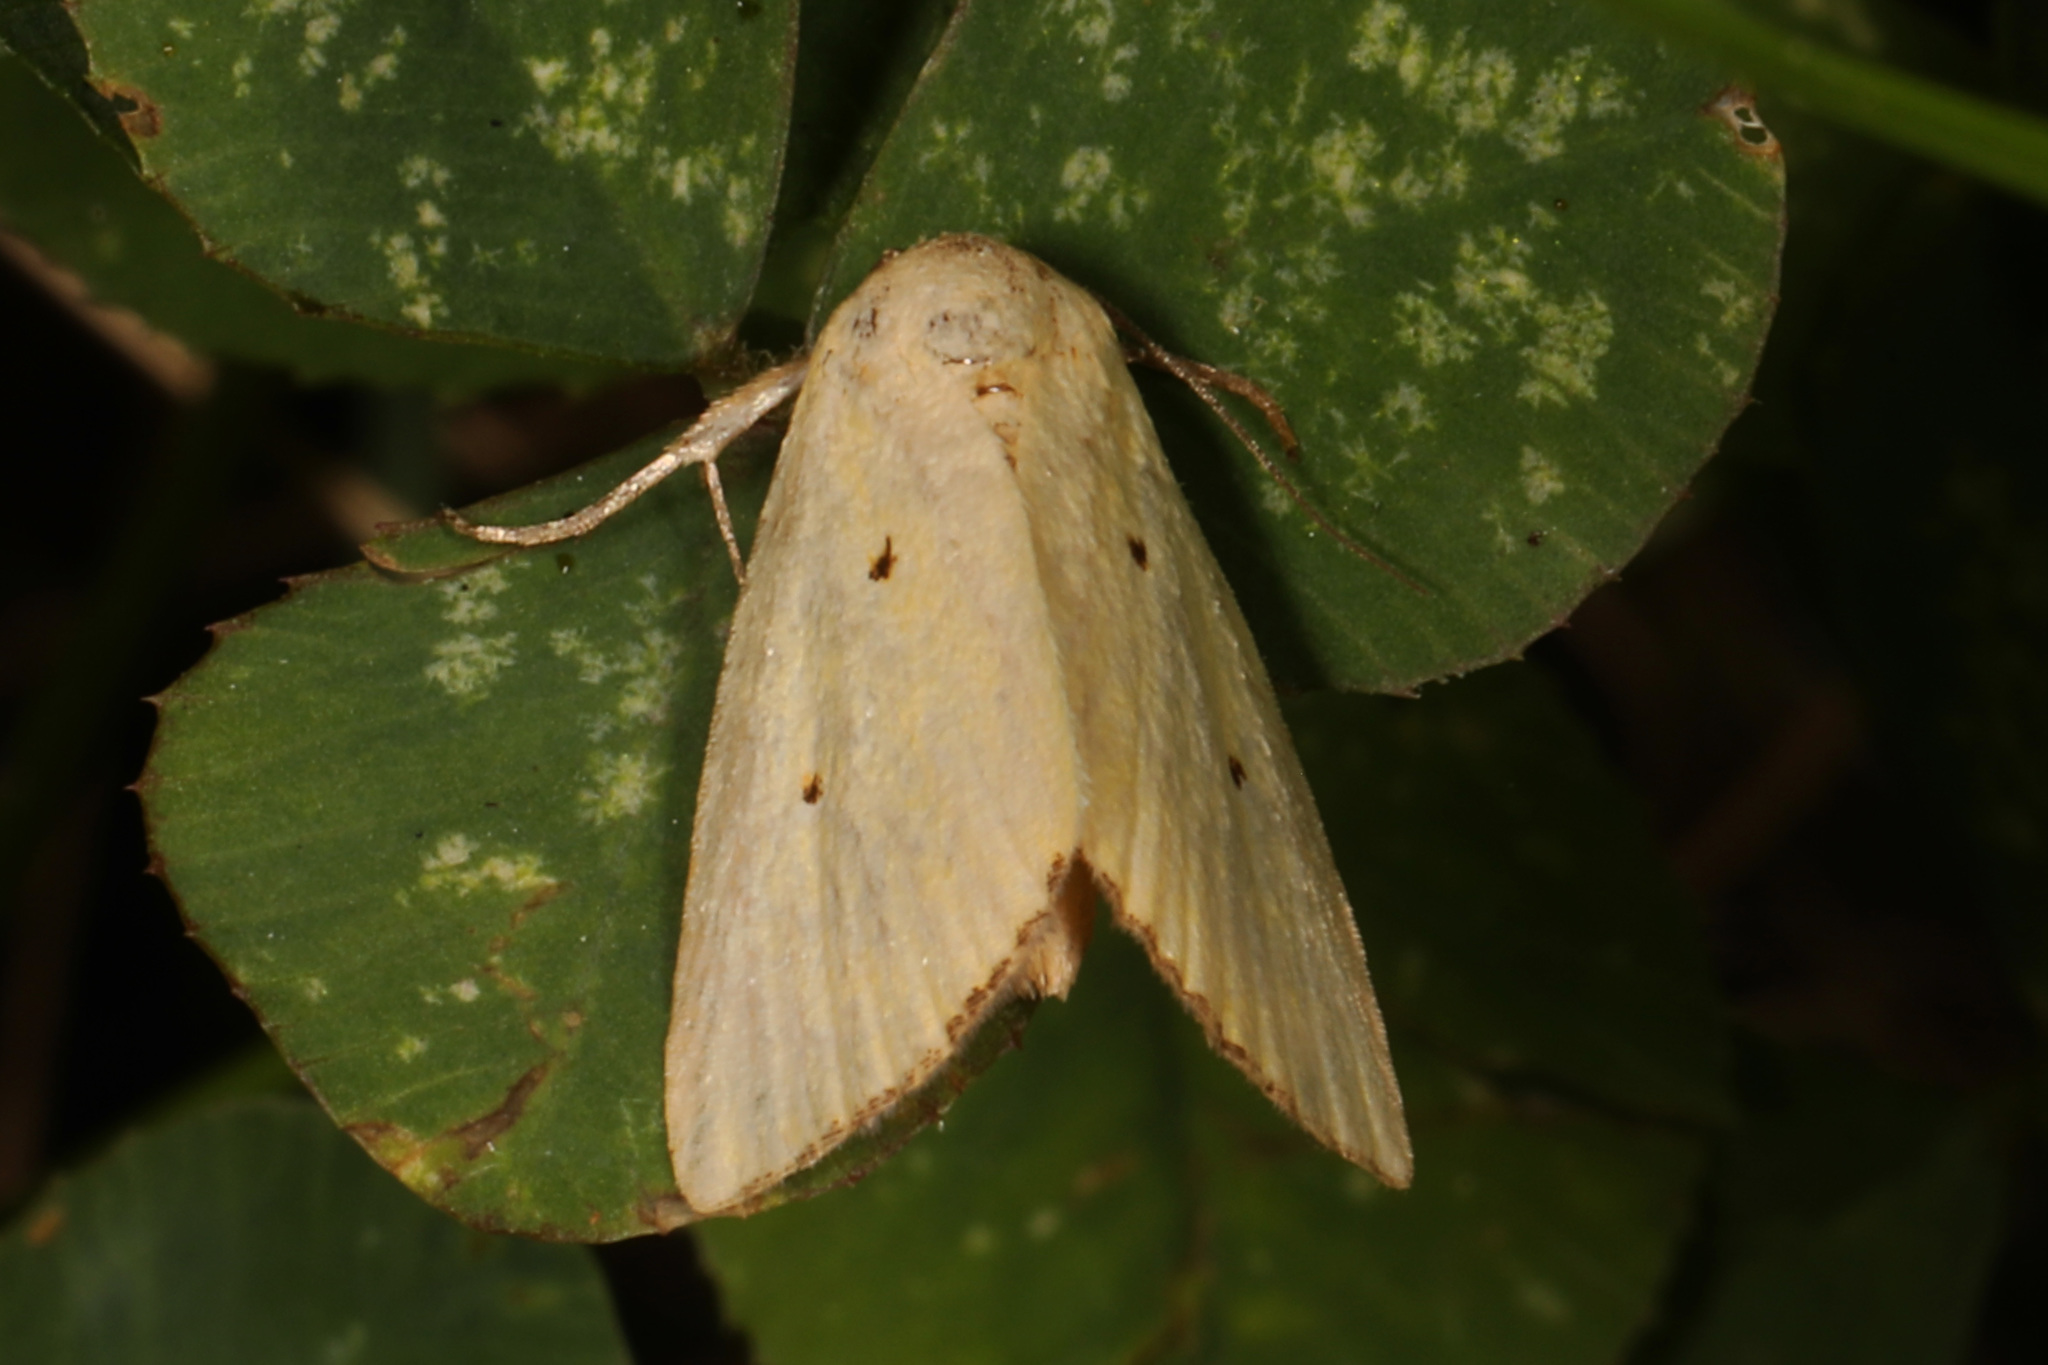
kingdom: Animalia
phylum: Arthropoda
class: Insecta
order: Lepidoptera
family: Noctuidae
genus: Marimatha
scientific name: Marimatha nigrofimbria
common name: Black-bordered lemon moth
